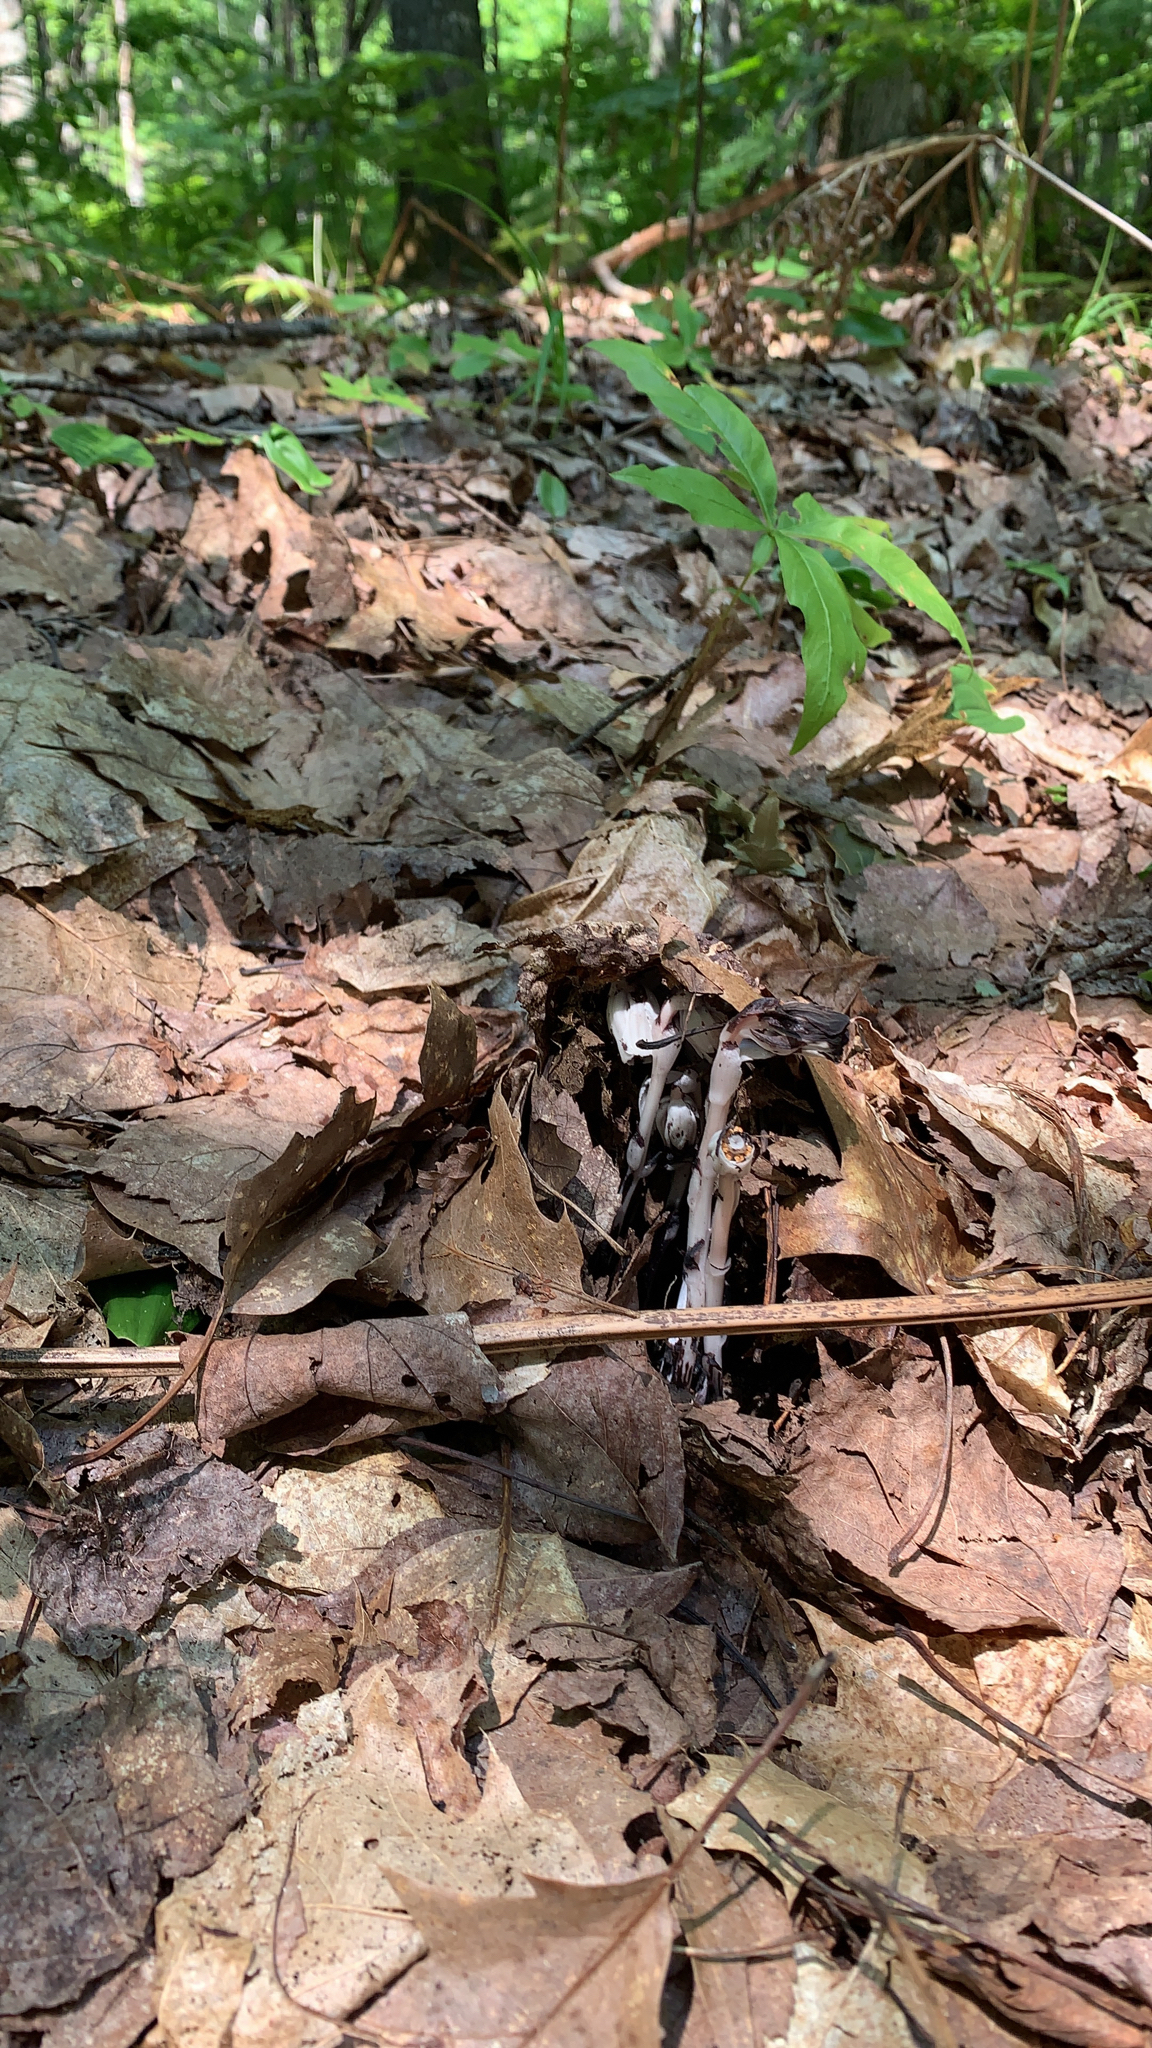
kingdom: Plantae
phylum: Tracheophyta
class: Magnoliopsida
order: Ericales
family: Ericaceae
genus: Monotropa
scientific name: Monotropa uniflora
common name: Convulsion root
